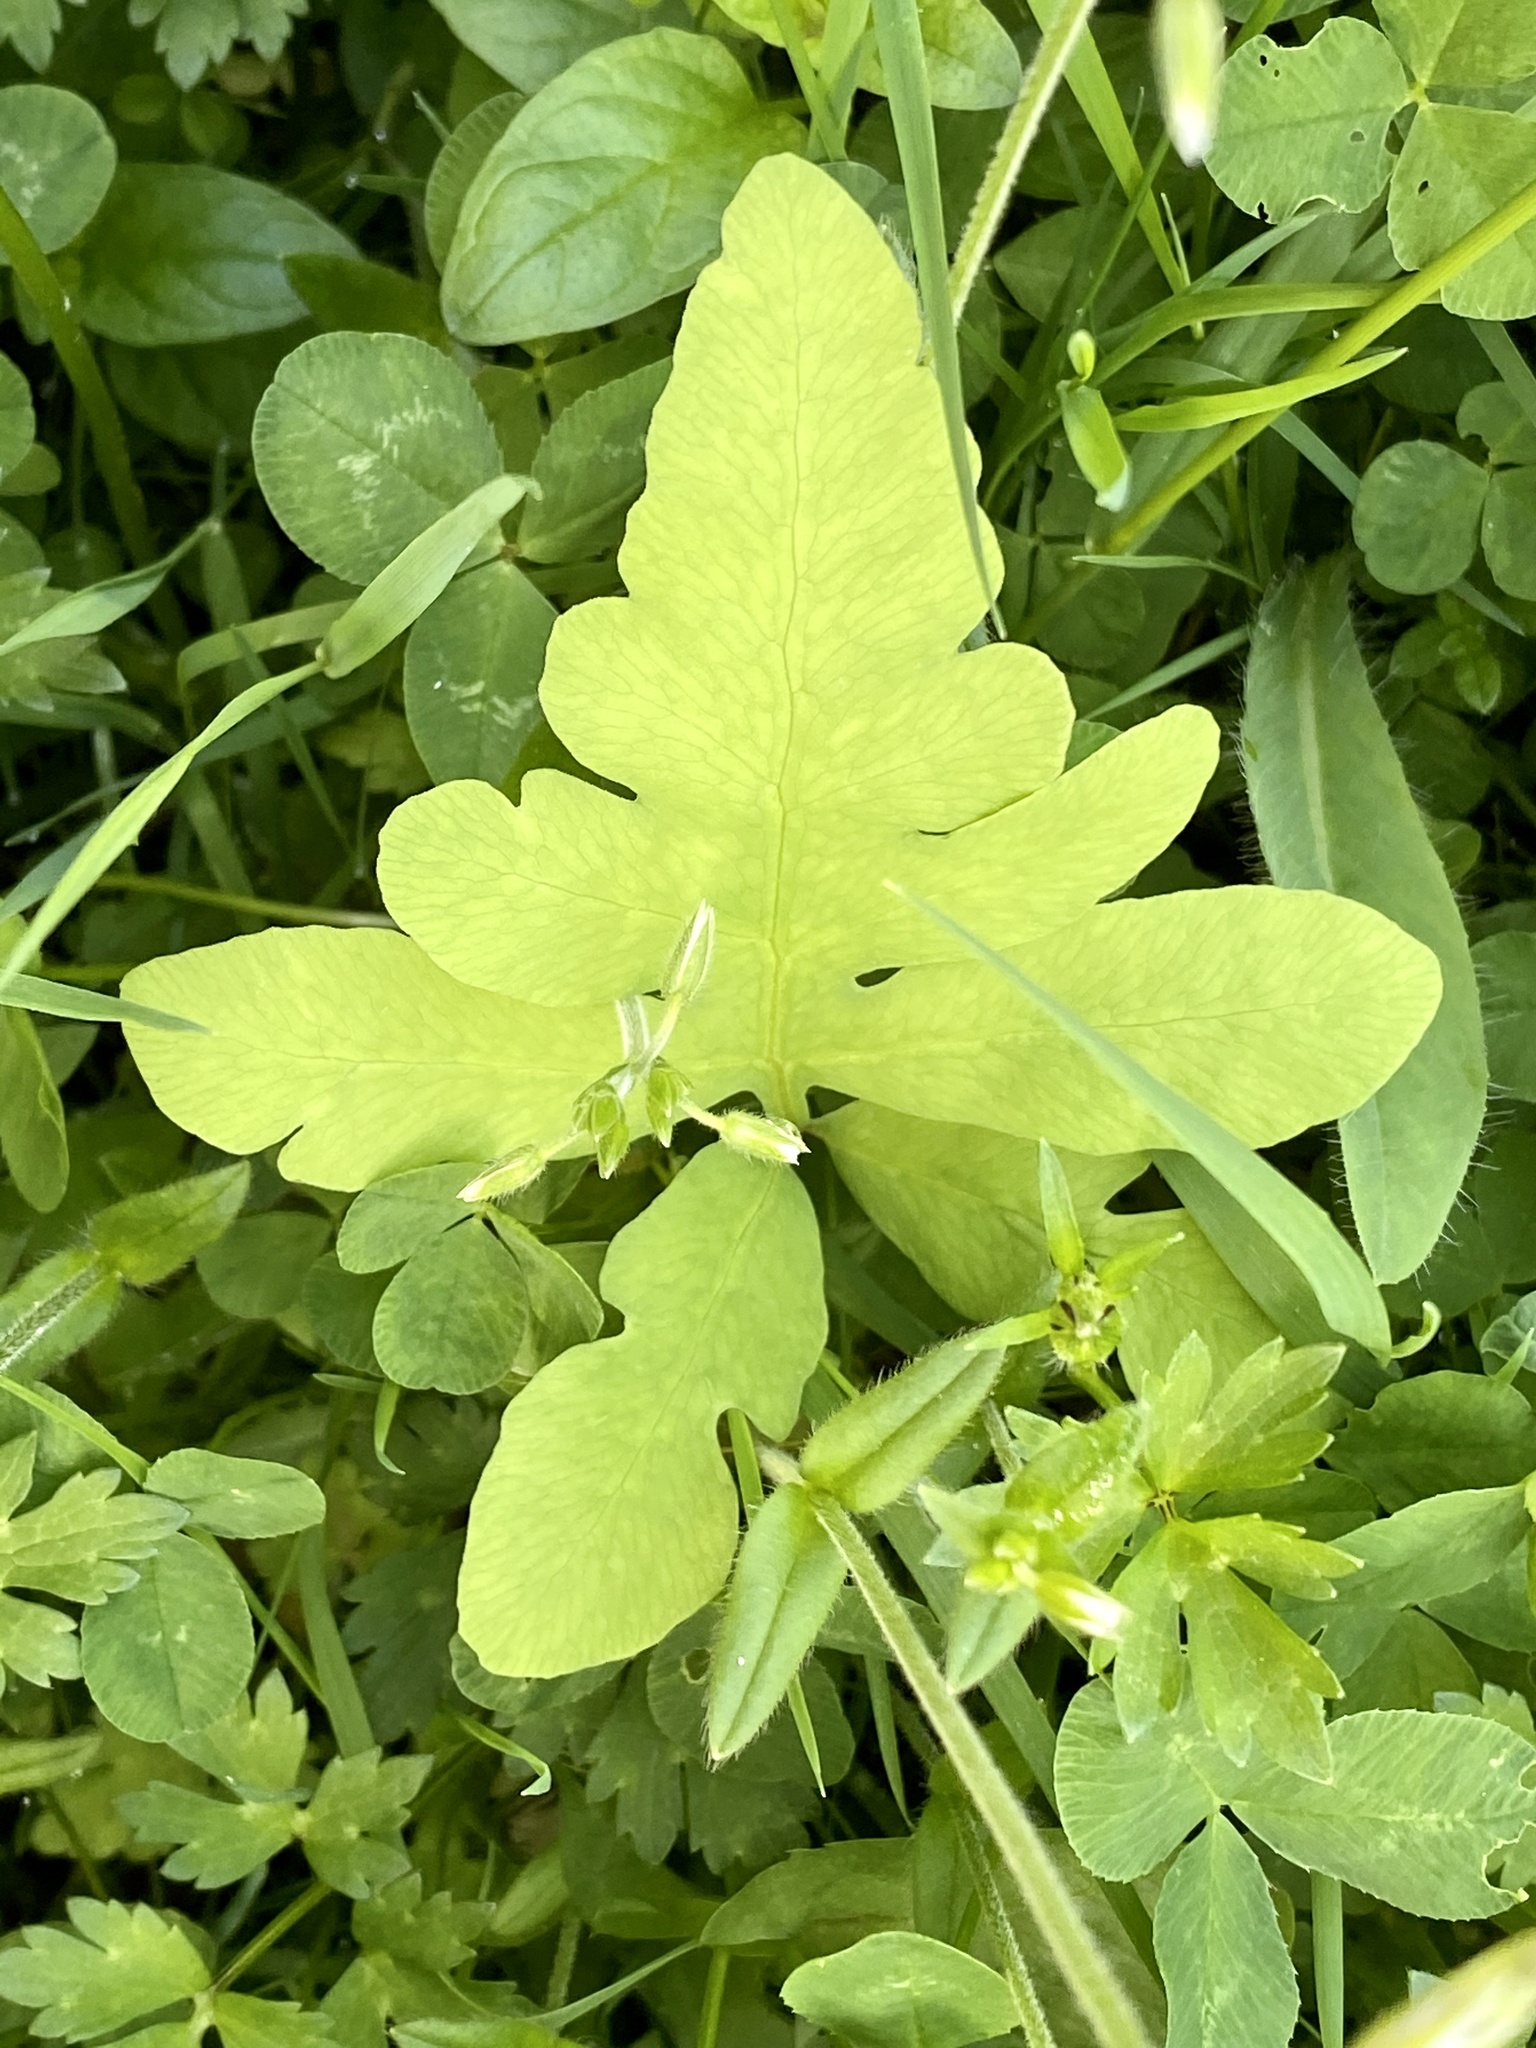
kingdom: Plantae
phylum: Tracheophyta
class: Polypodiopsida
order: Polypodiales
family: Onocleaceae
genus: Onoclea
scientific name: Onoclea sensibilis
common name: Sensitive fern
